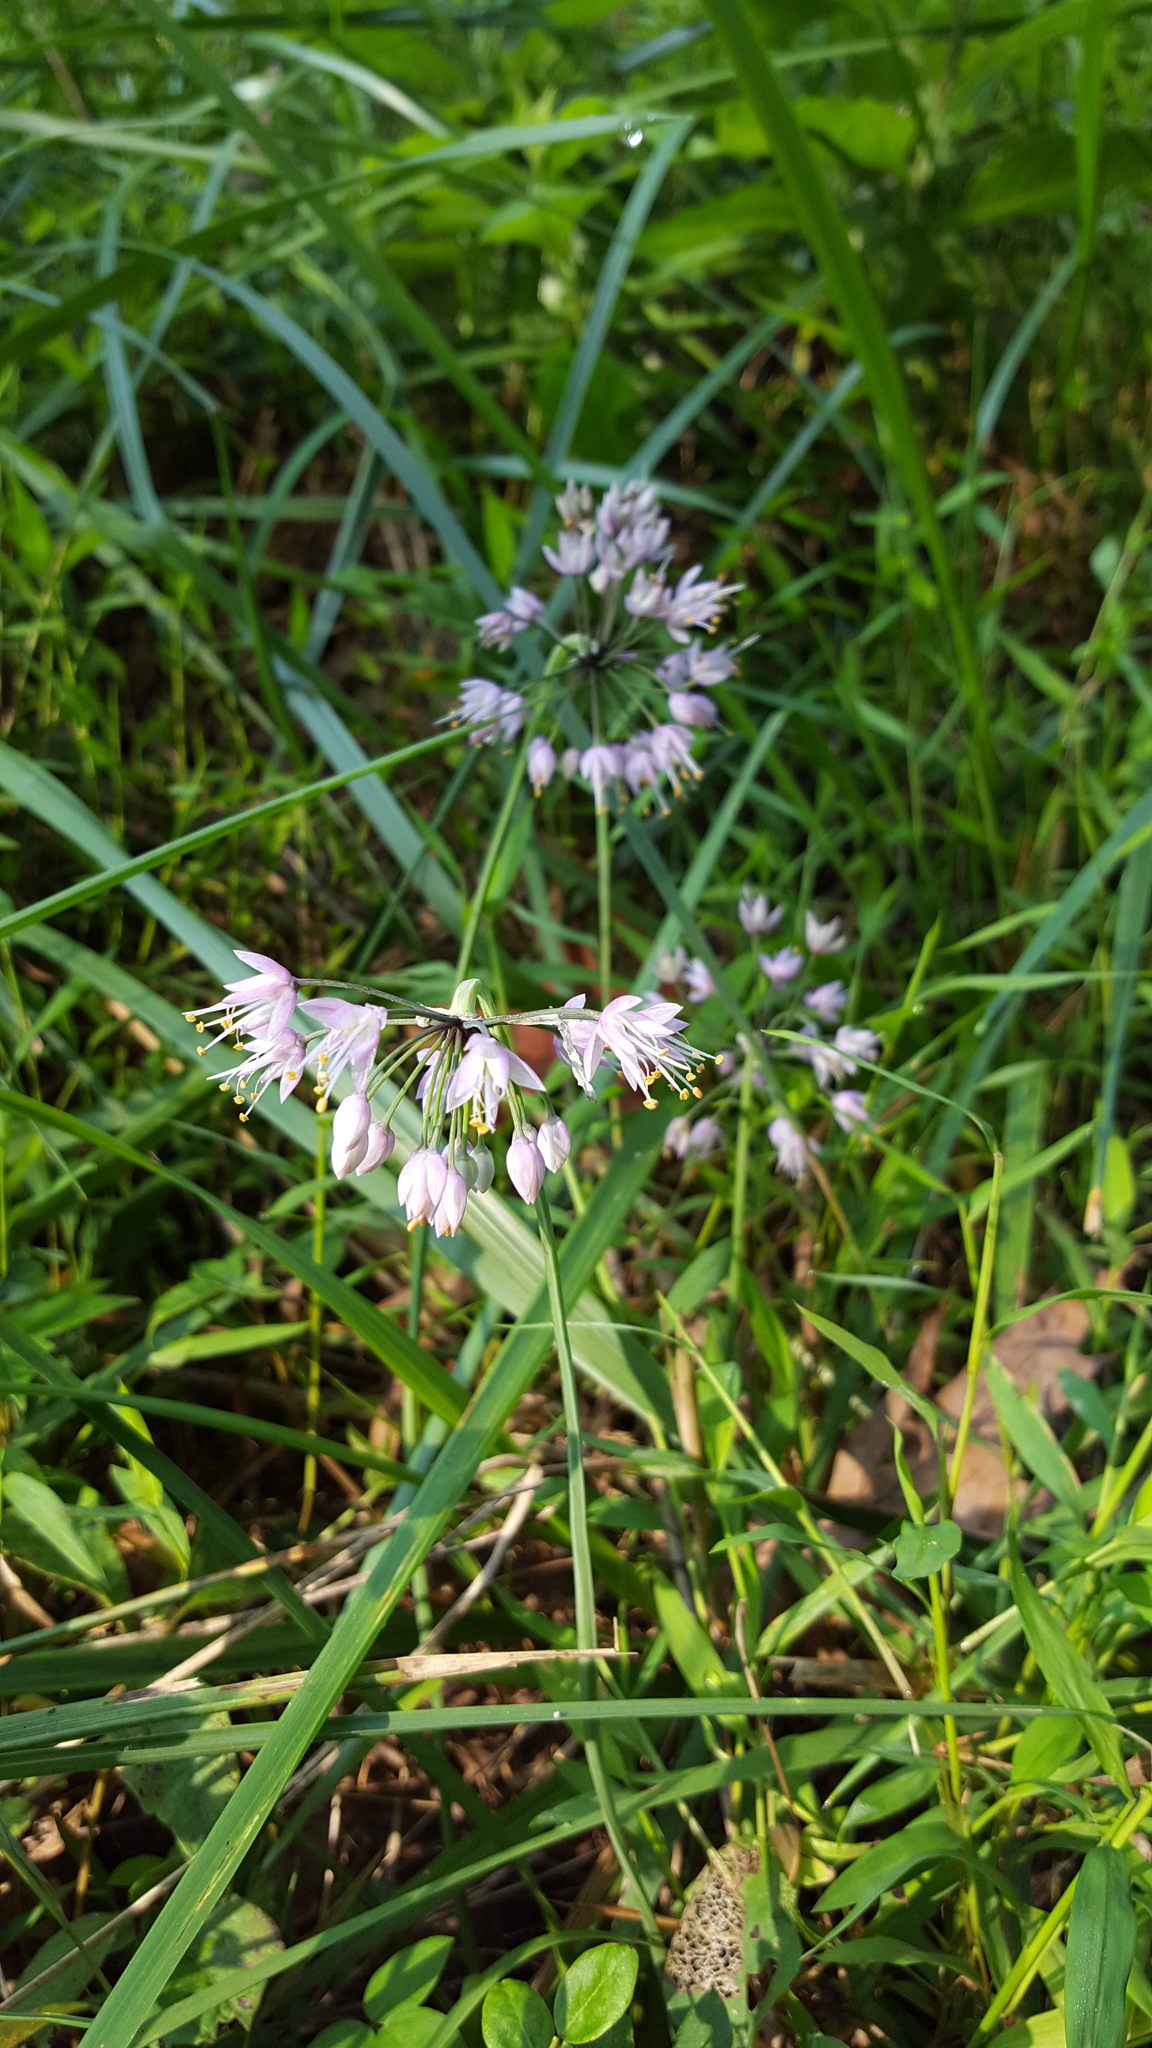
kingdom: Plantae
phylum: Tracheophyta
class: Liliopsida
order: Asparagales
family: Amaryllidaceae
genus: Allium
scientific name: Allium cernuum
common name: Nodding onion
